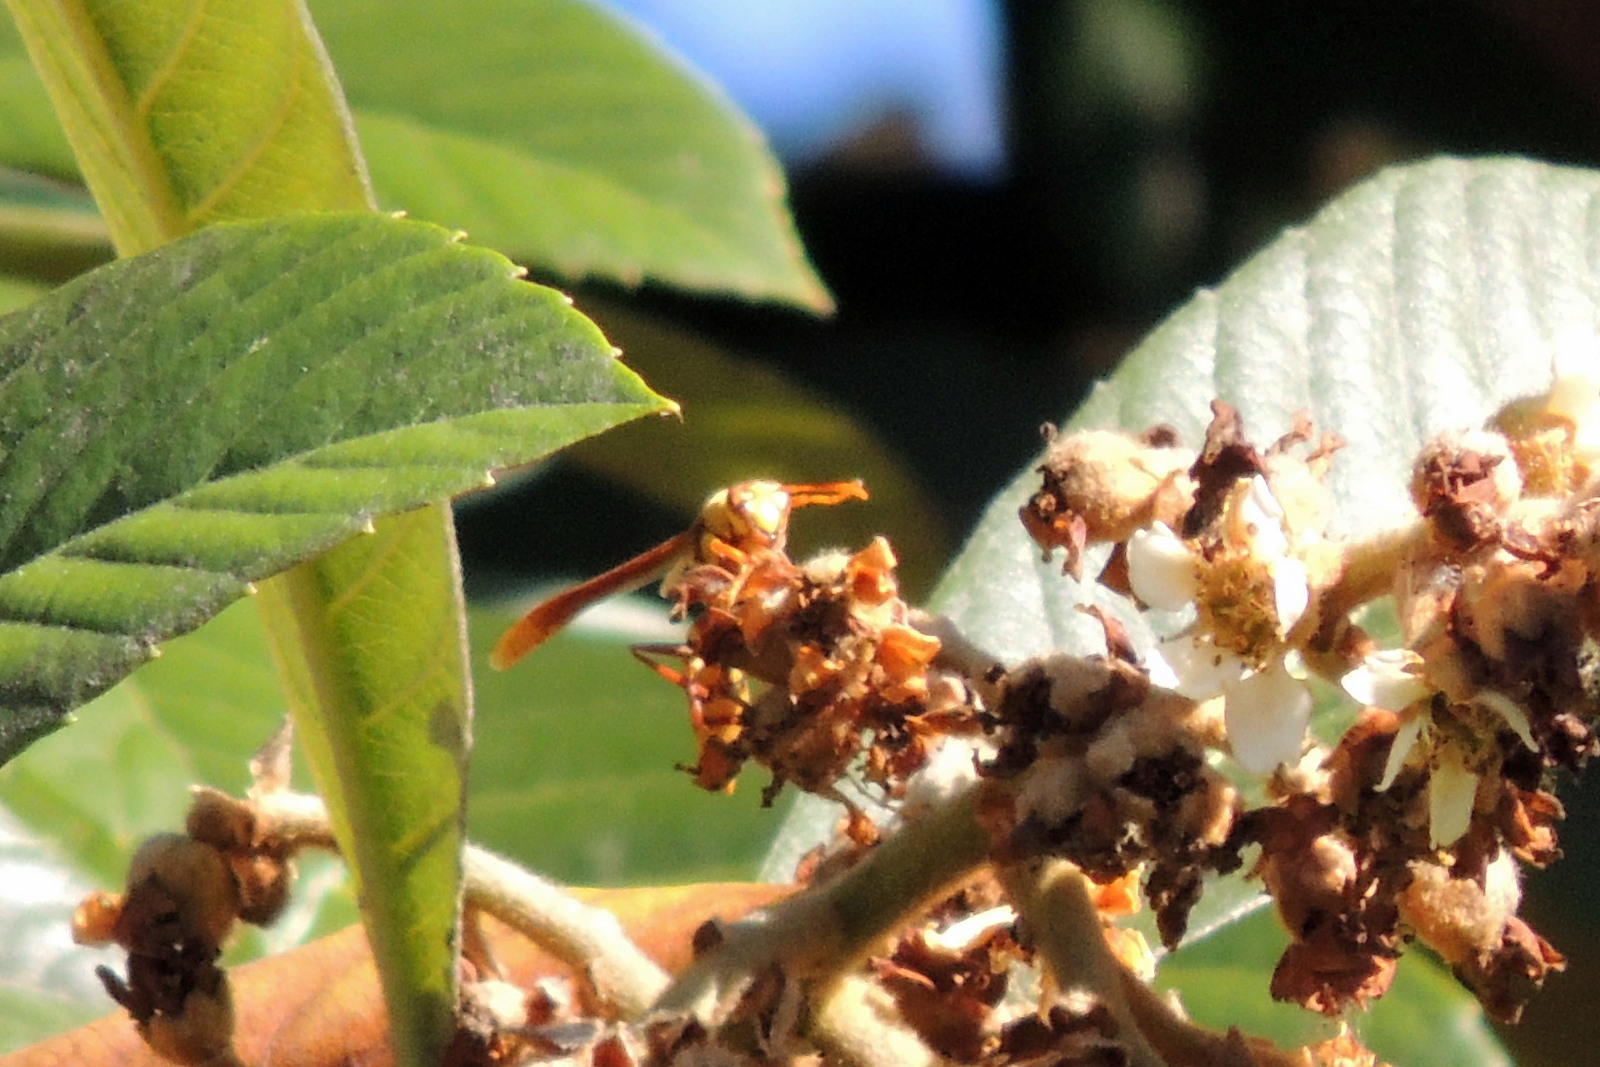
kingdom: Animalia
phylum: Arthropoda
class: Insecta
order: Hymenoptera
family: Eumenidae
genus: Polistes
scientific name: Polistes major
